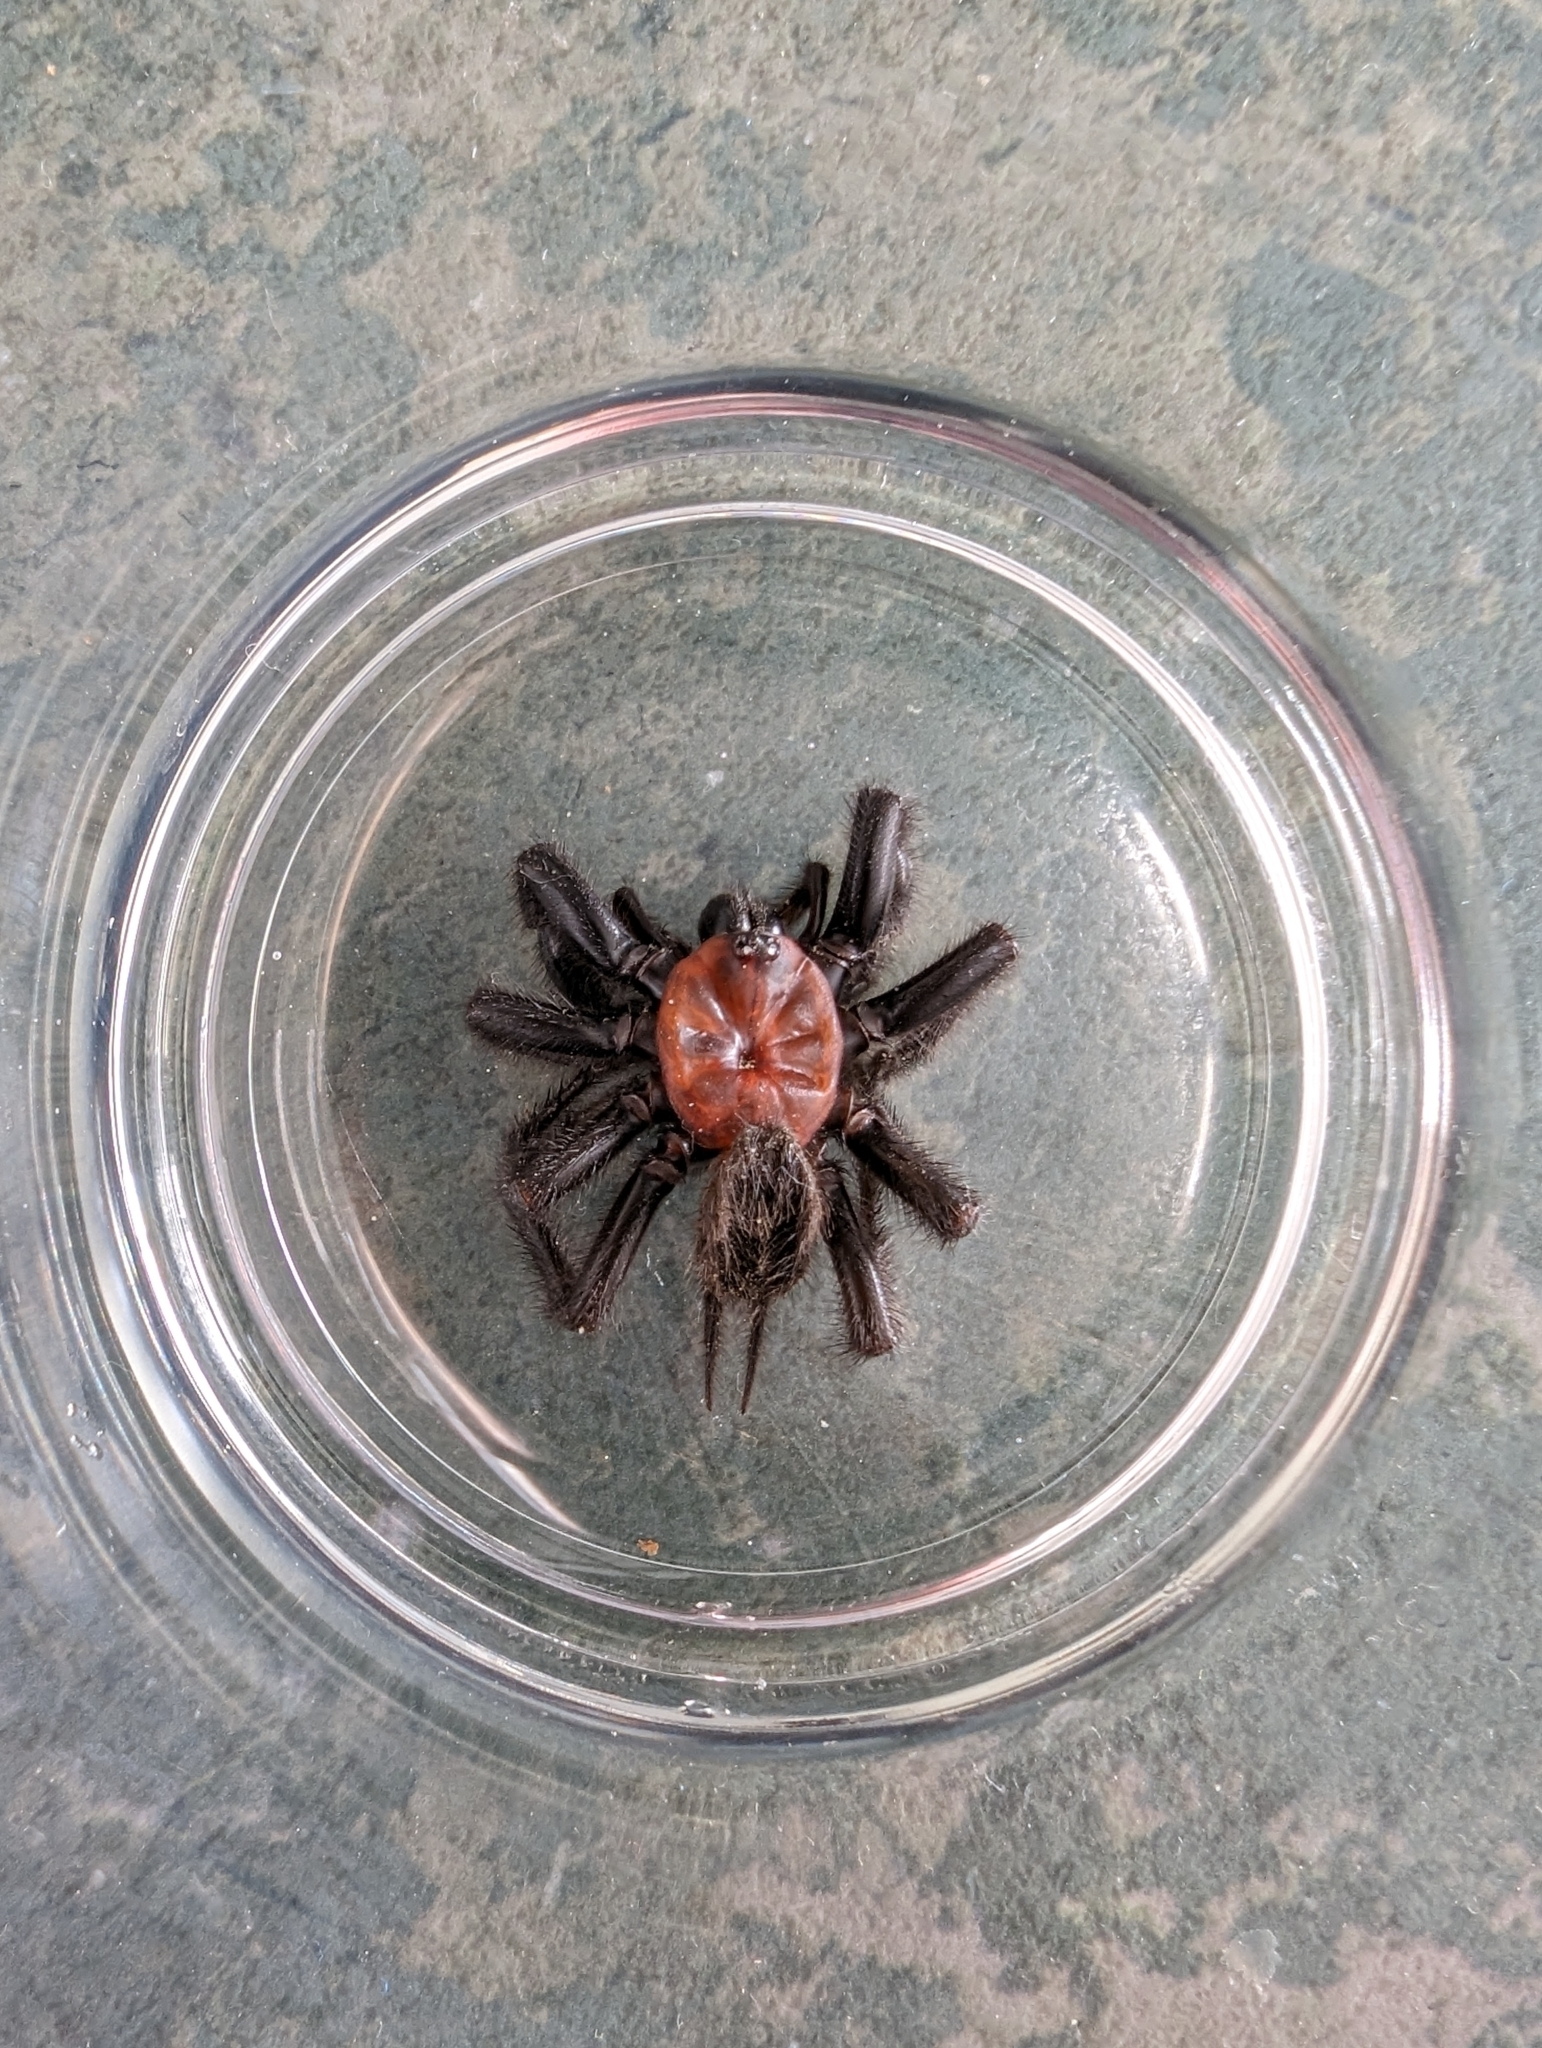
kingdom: Animalia
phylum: Arthropoda
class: Arachnida
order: Araneae
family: Porrhothelidae
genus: Porrhothele
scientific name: Porrhothele antipodiana
